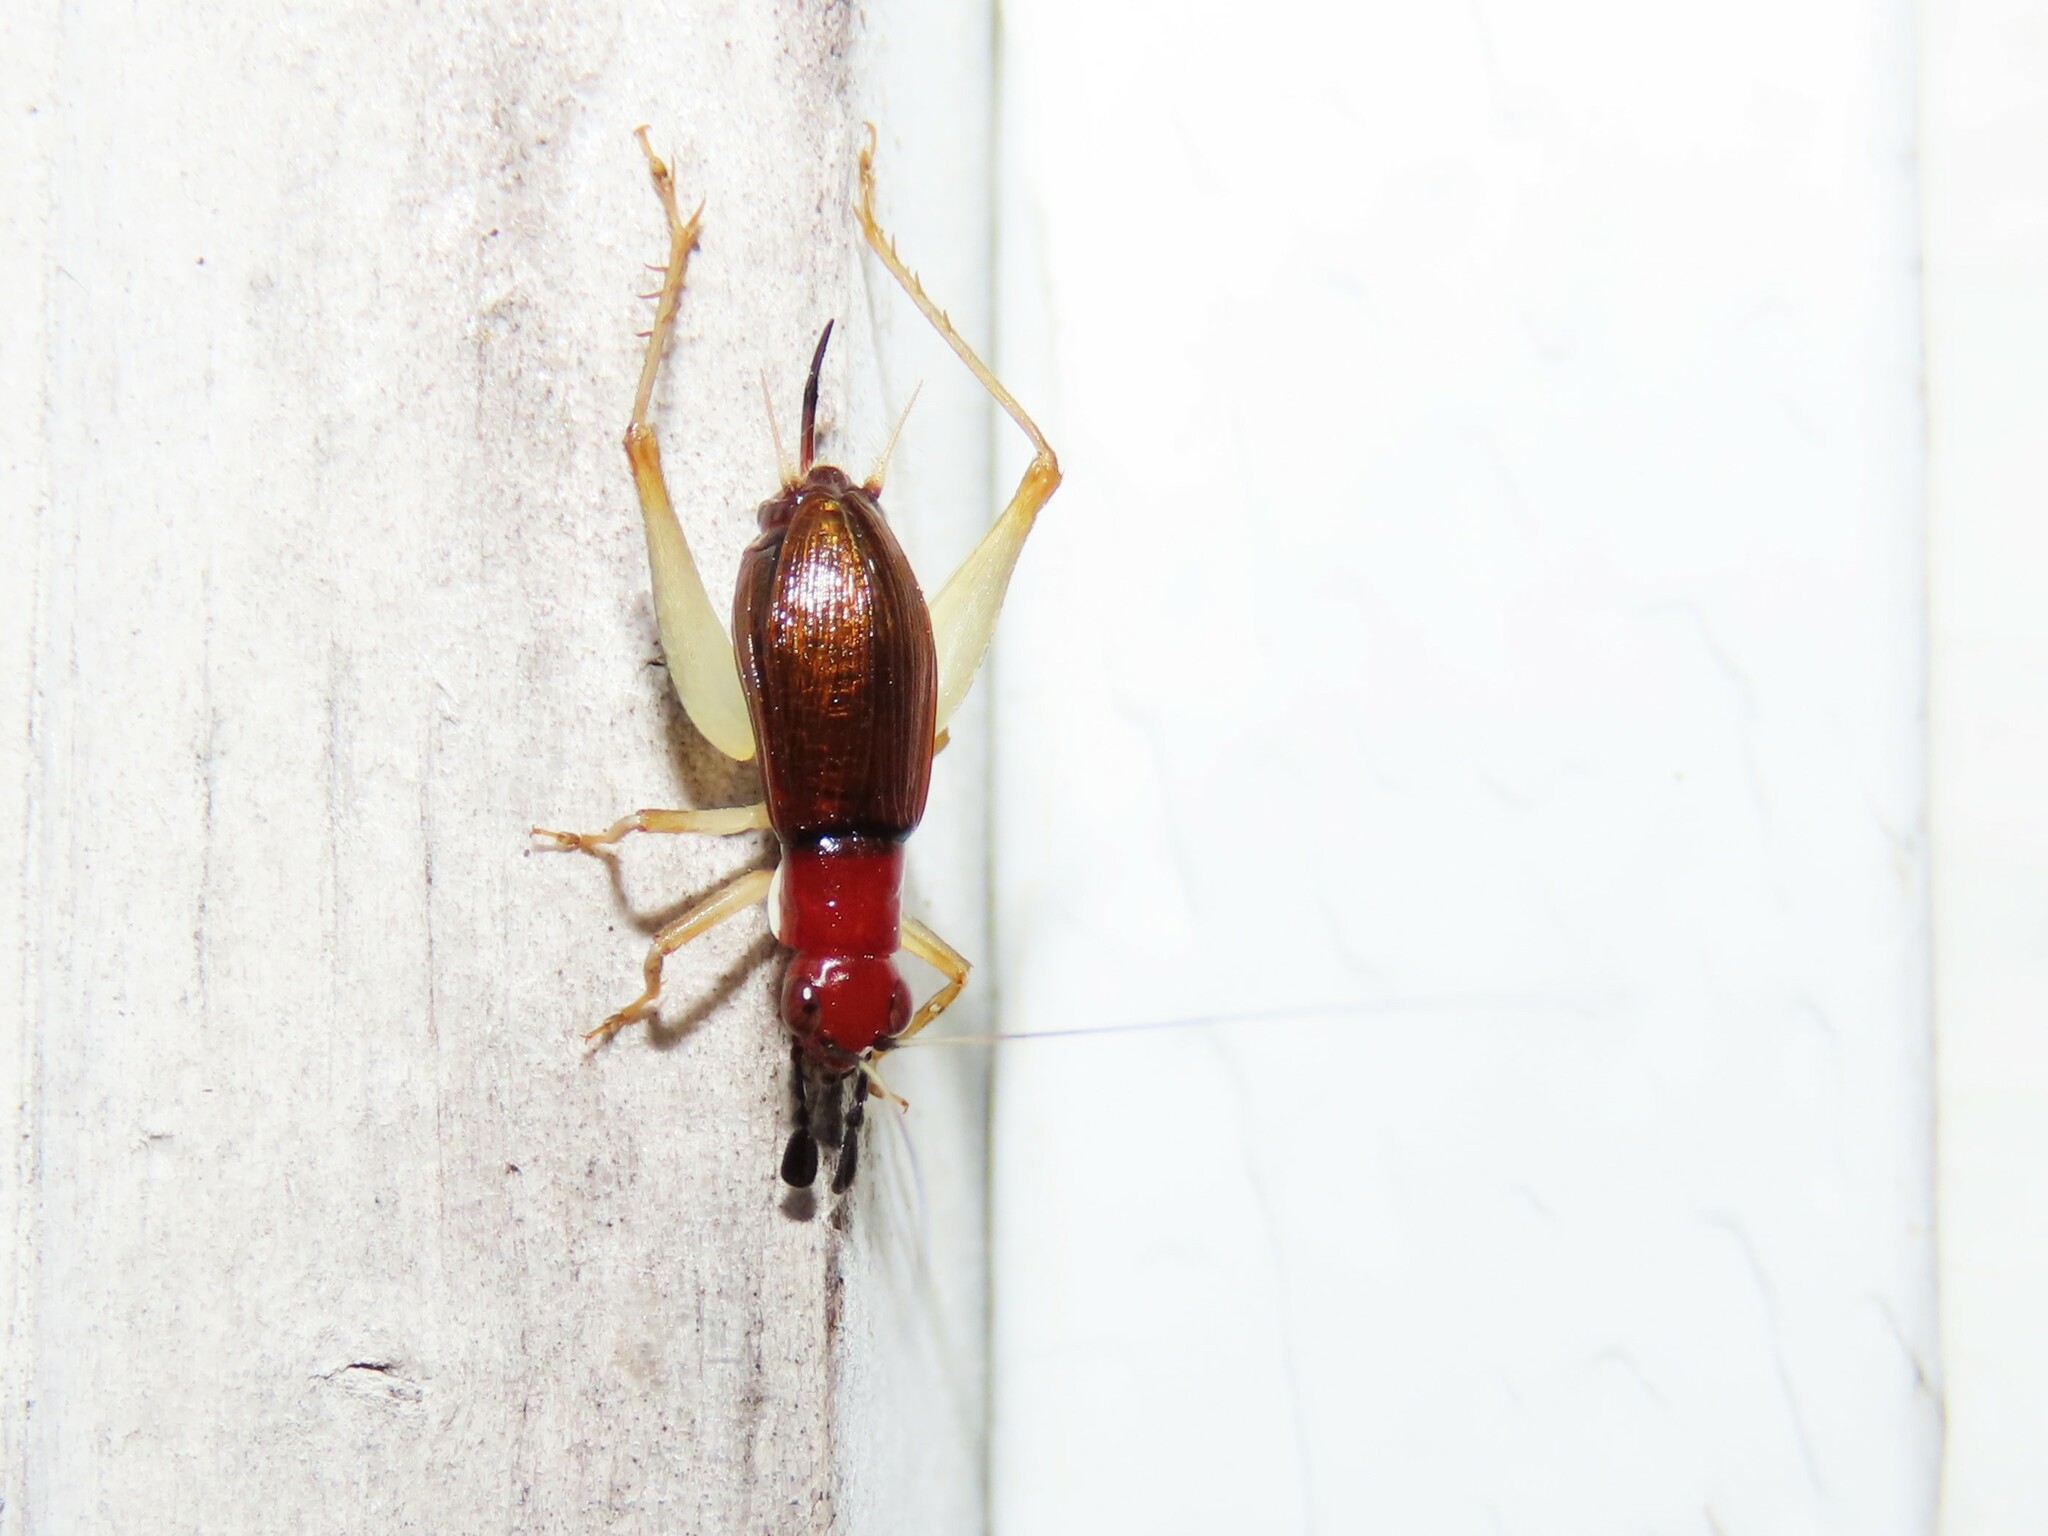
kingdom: Animalia
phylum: Arthropoda
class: Insecta
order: Orthoptera
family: Trigonidiidae
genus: Phyllopalpus
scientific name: Phyllopalpus pulchellus
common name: Handsome trig
